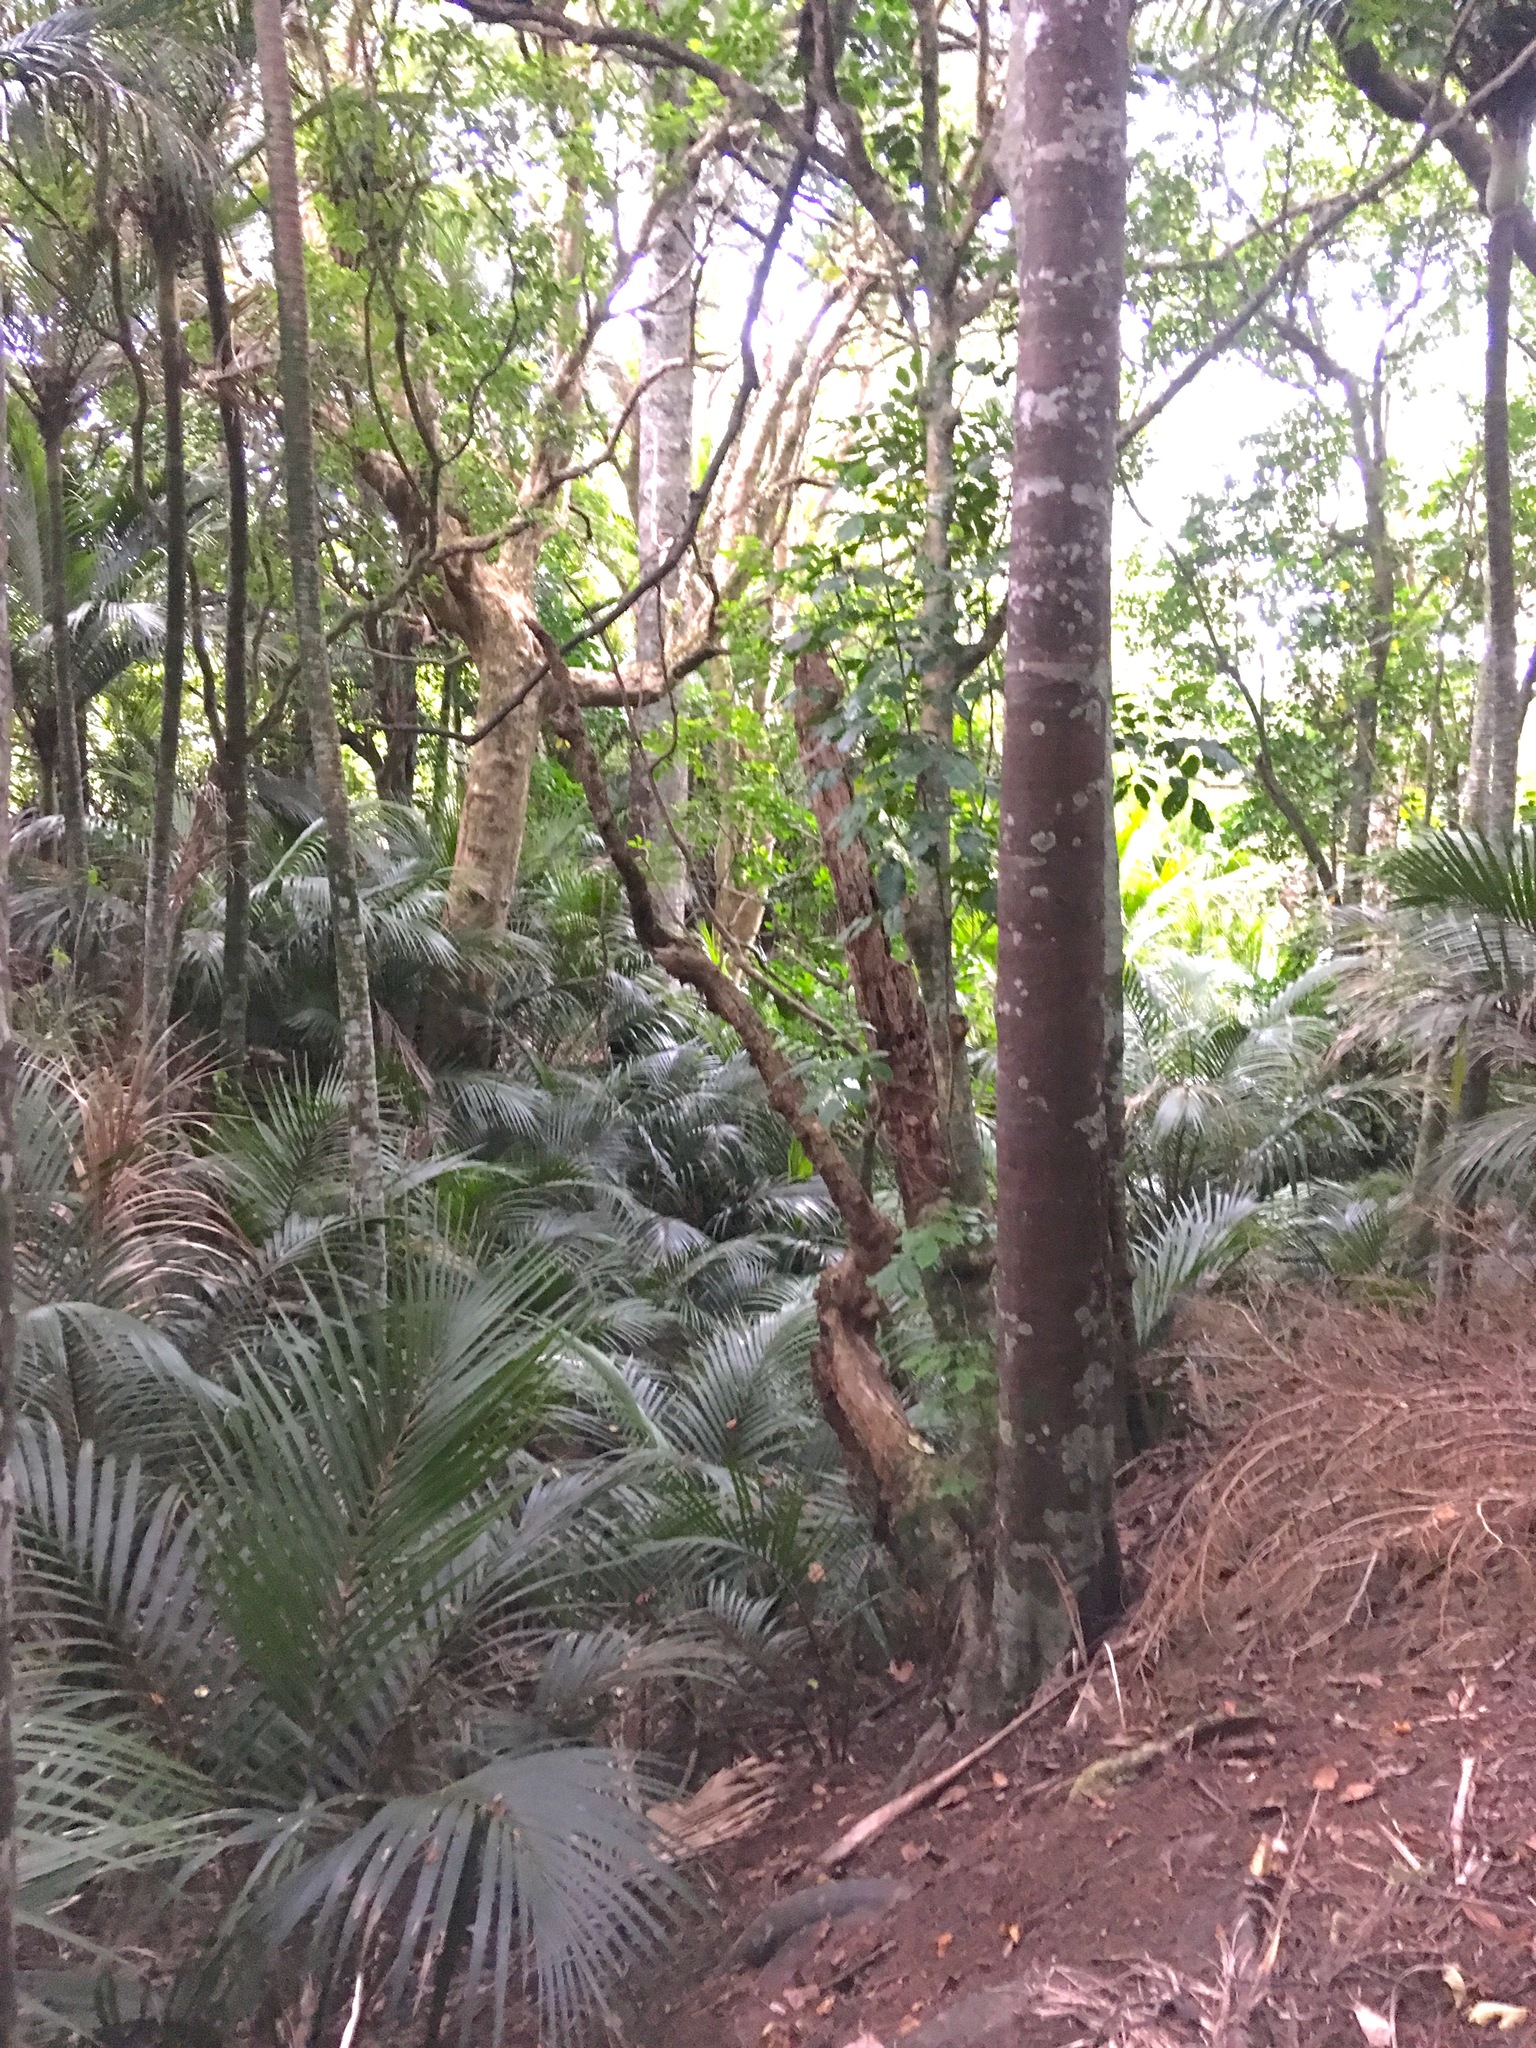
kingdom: Plantae
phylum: Tracheophyta
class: Liliopsida
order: Arecales
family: Arecaceae
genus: Rhopalostylis
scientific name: Rhopalostylis sapida
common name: Feather-duster palm
